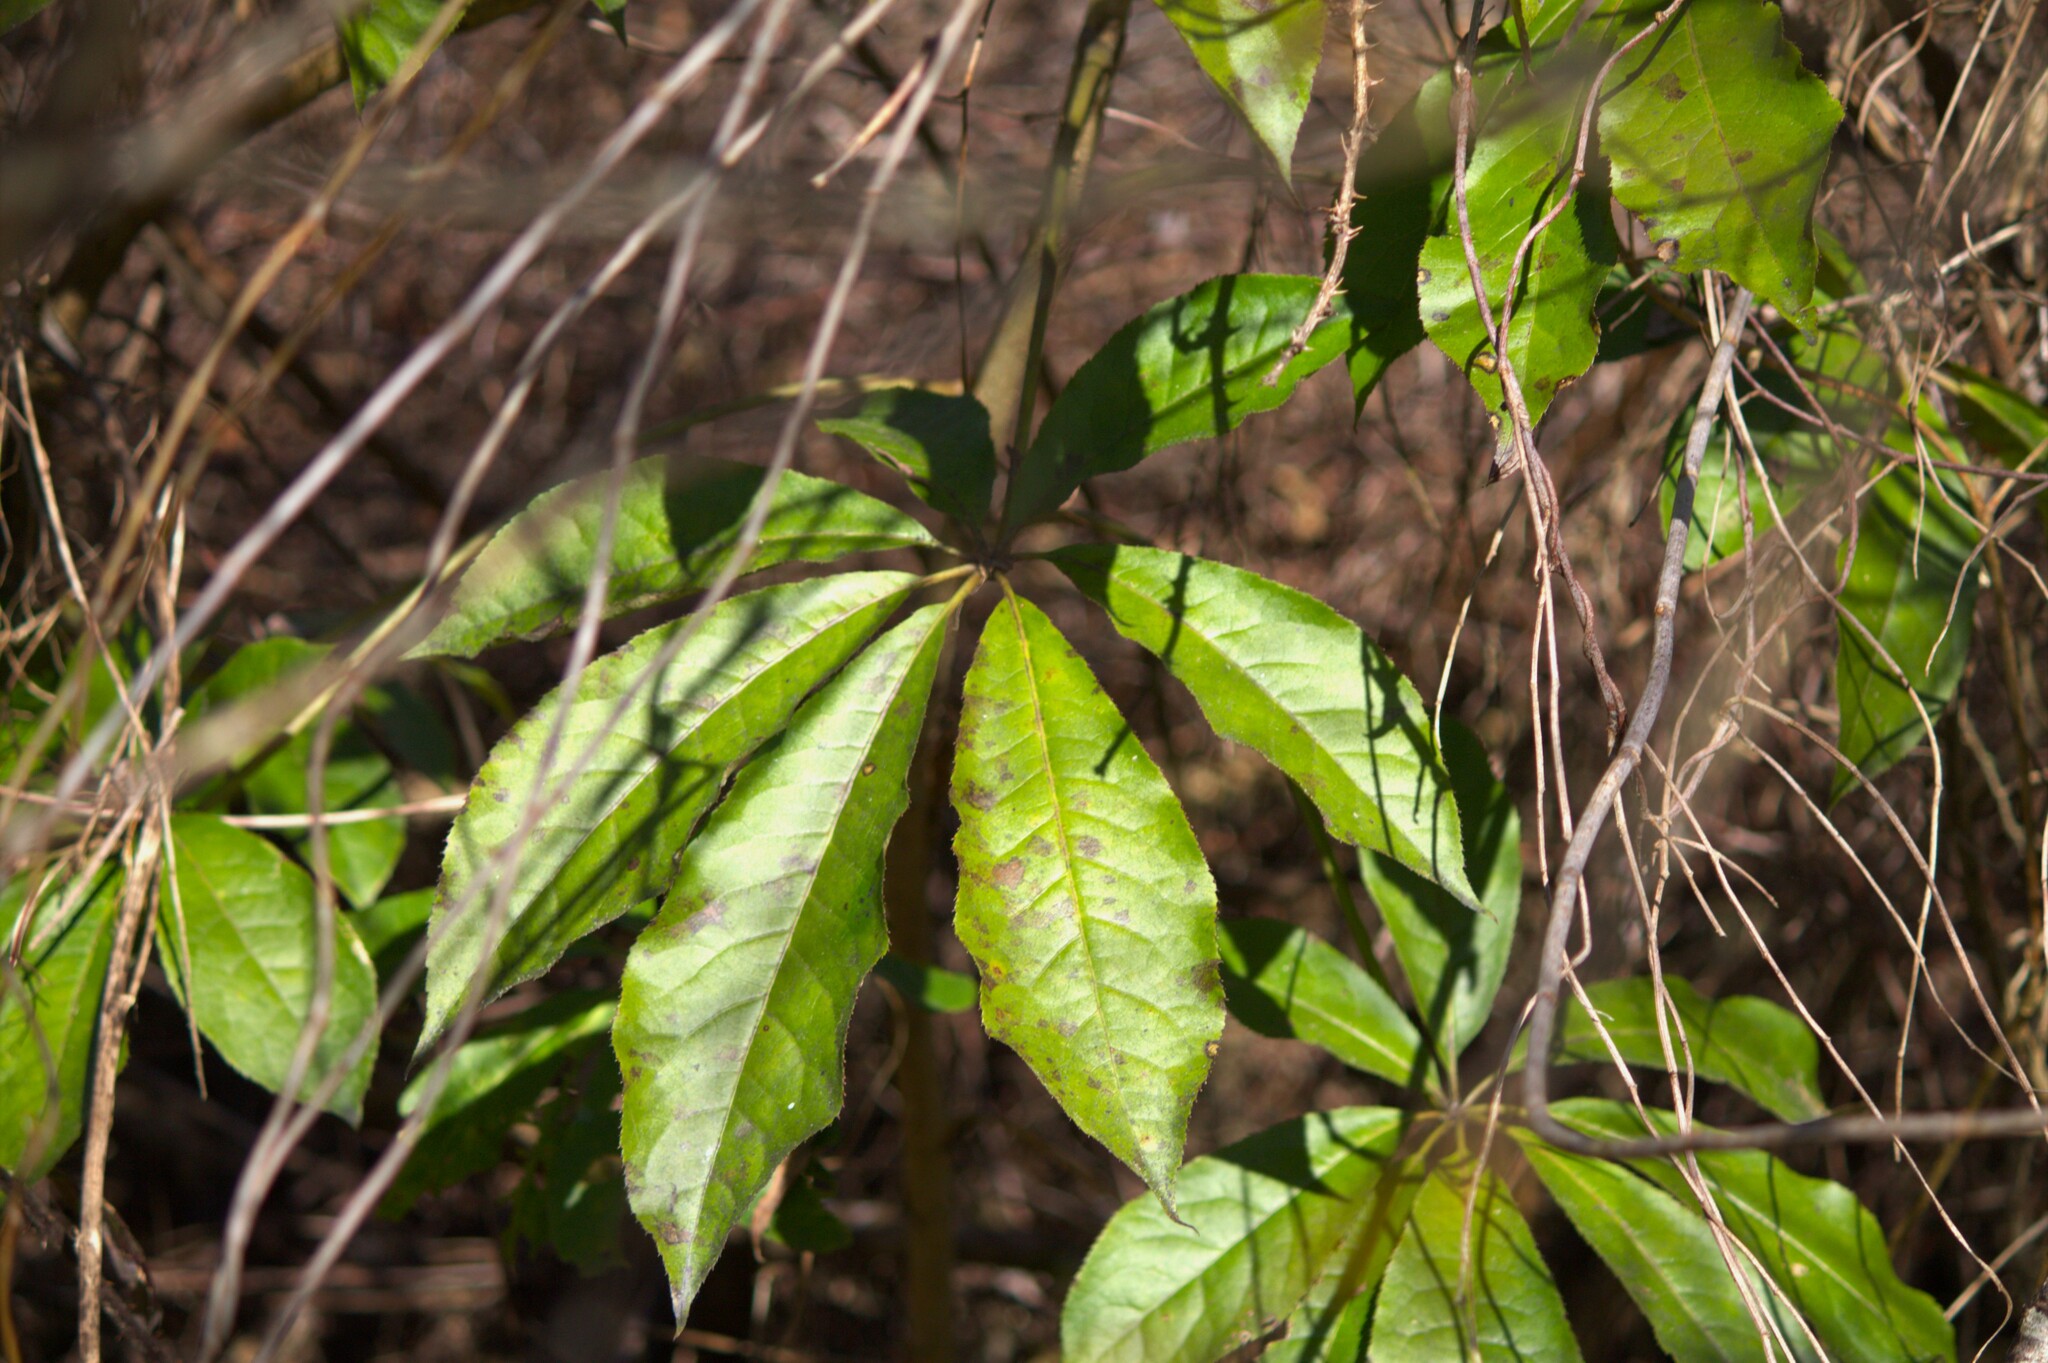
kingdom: Plantae
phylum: Tracheophyta
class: Magnoliopsida
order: Apiales
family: Araliaceae
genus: Schefflera
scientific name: Schefflera digitata
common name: Pate
